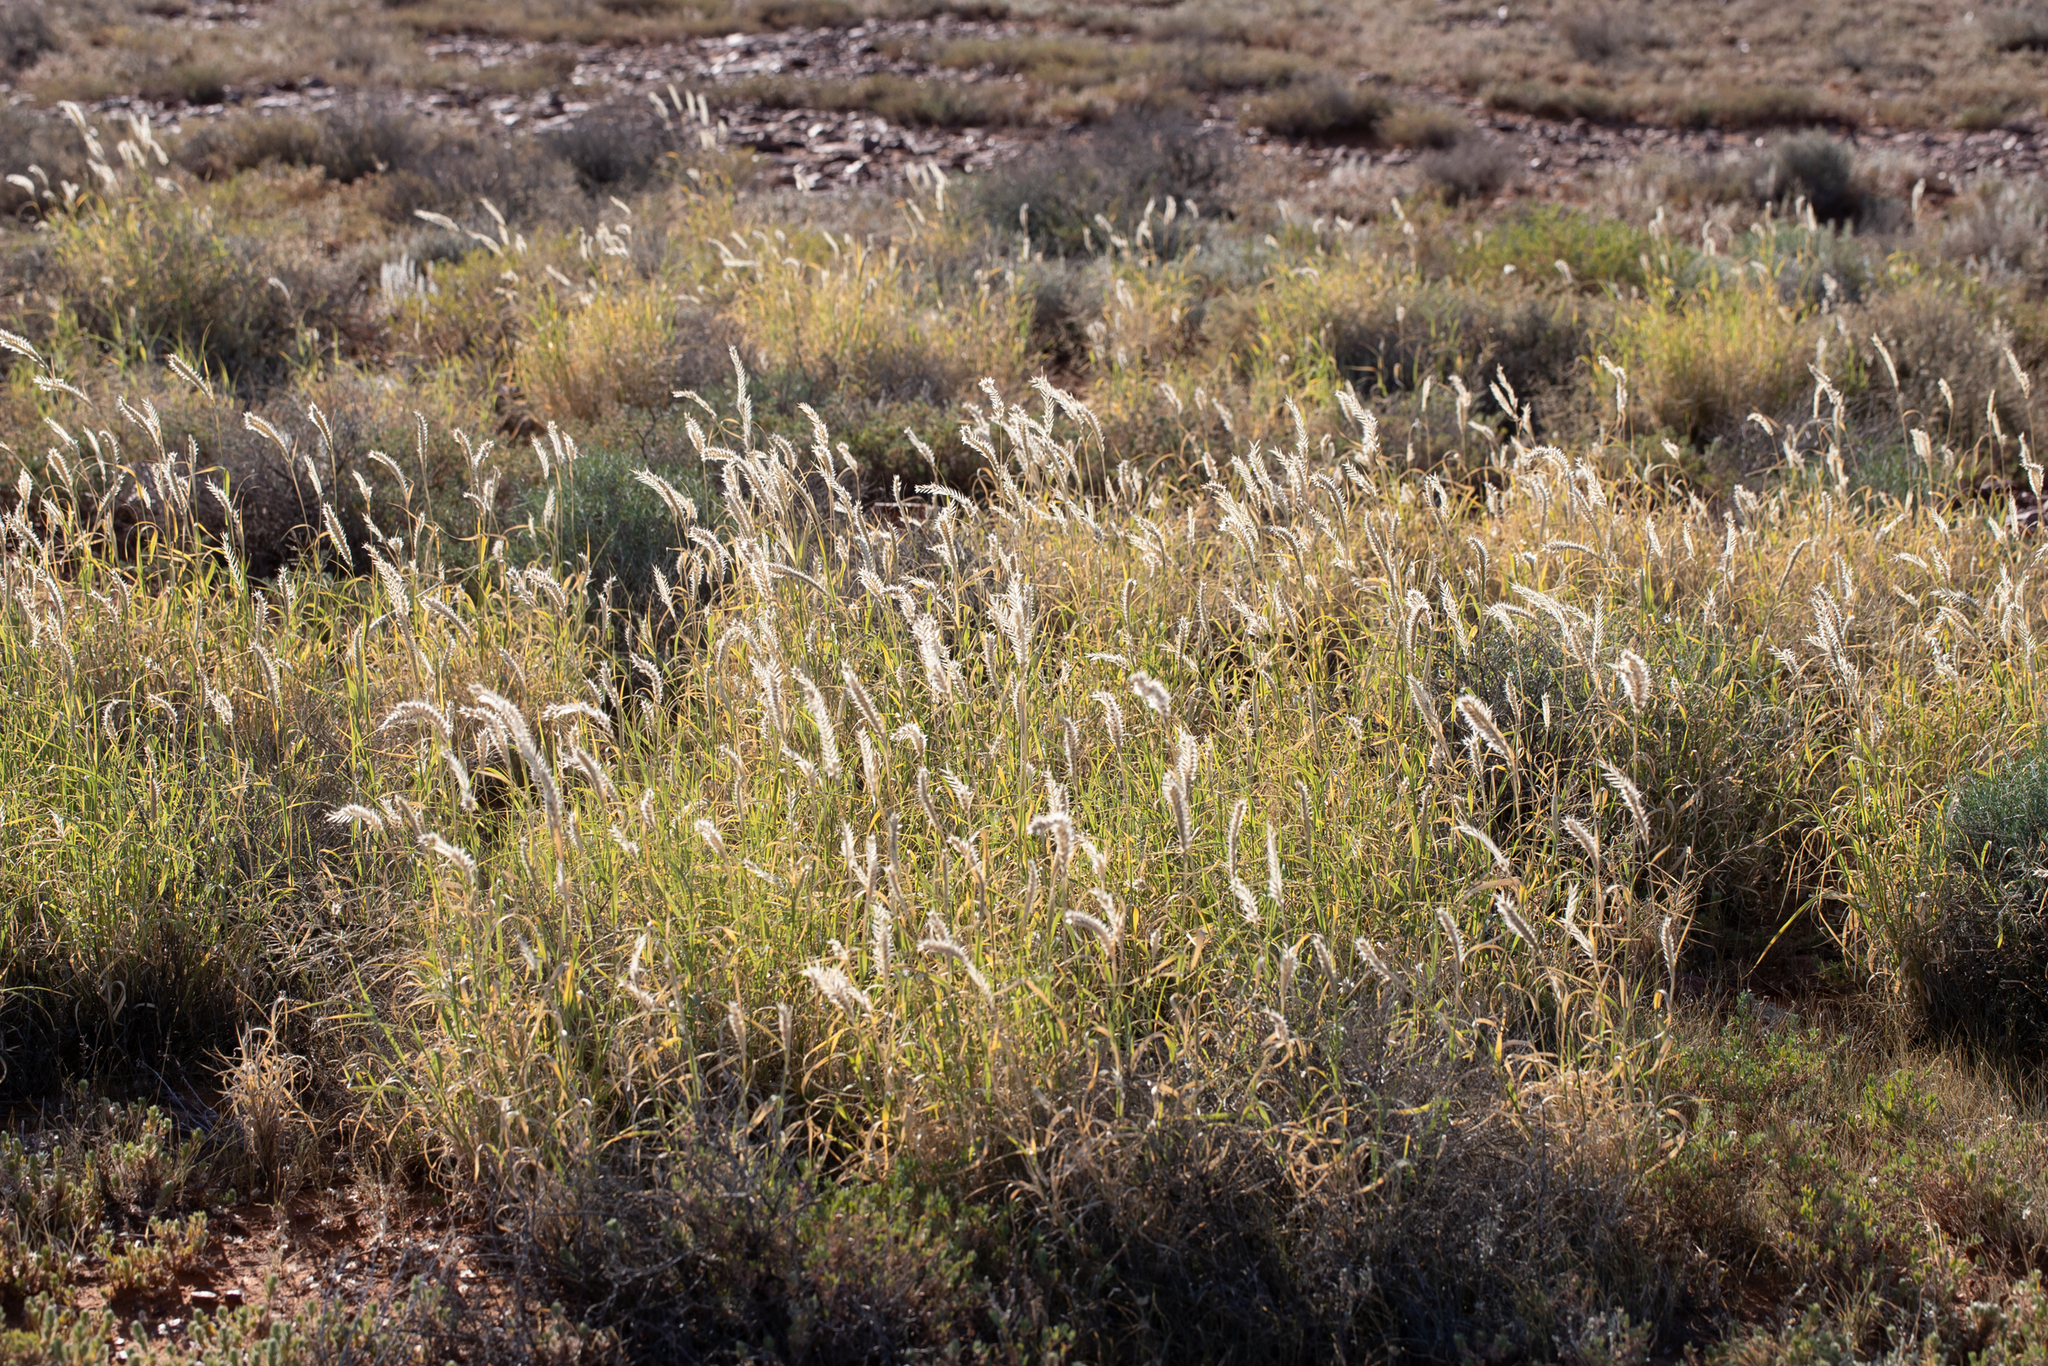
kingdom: Plantae
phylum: Tracheophyta
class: Liliopsida
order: Poales
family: Poaceae
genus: Astrebla
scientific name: Astrebla pectinata
